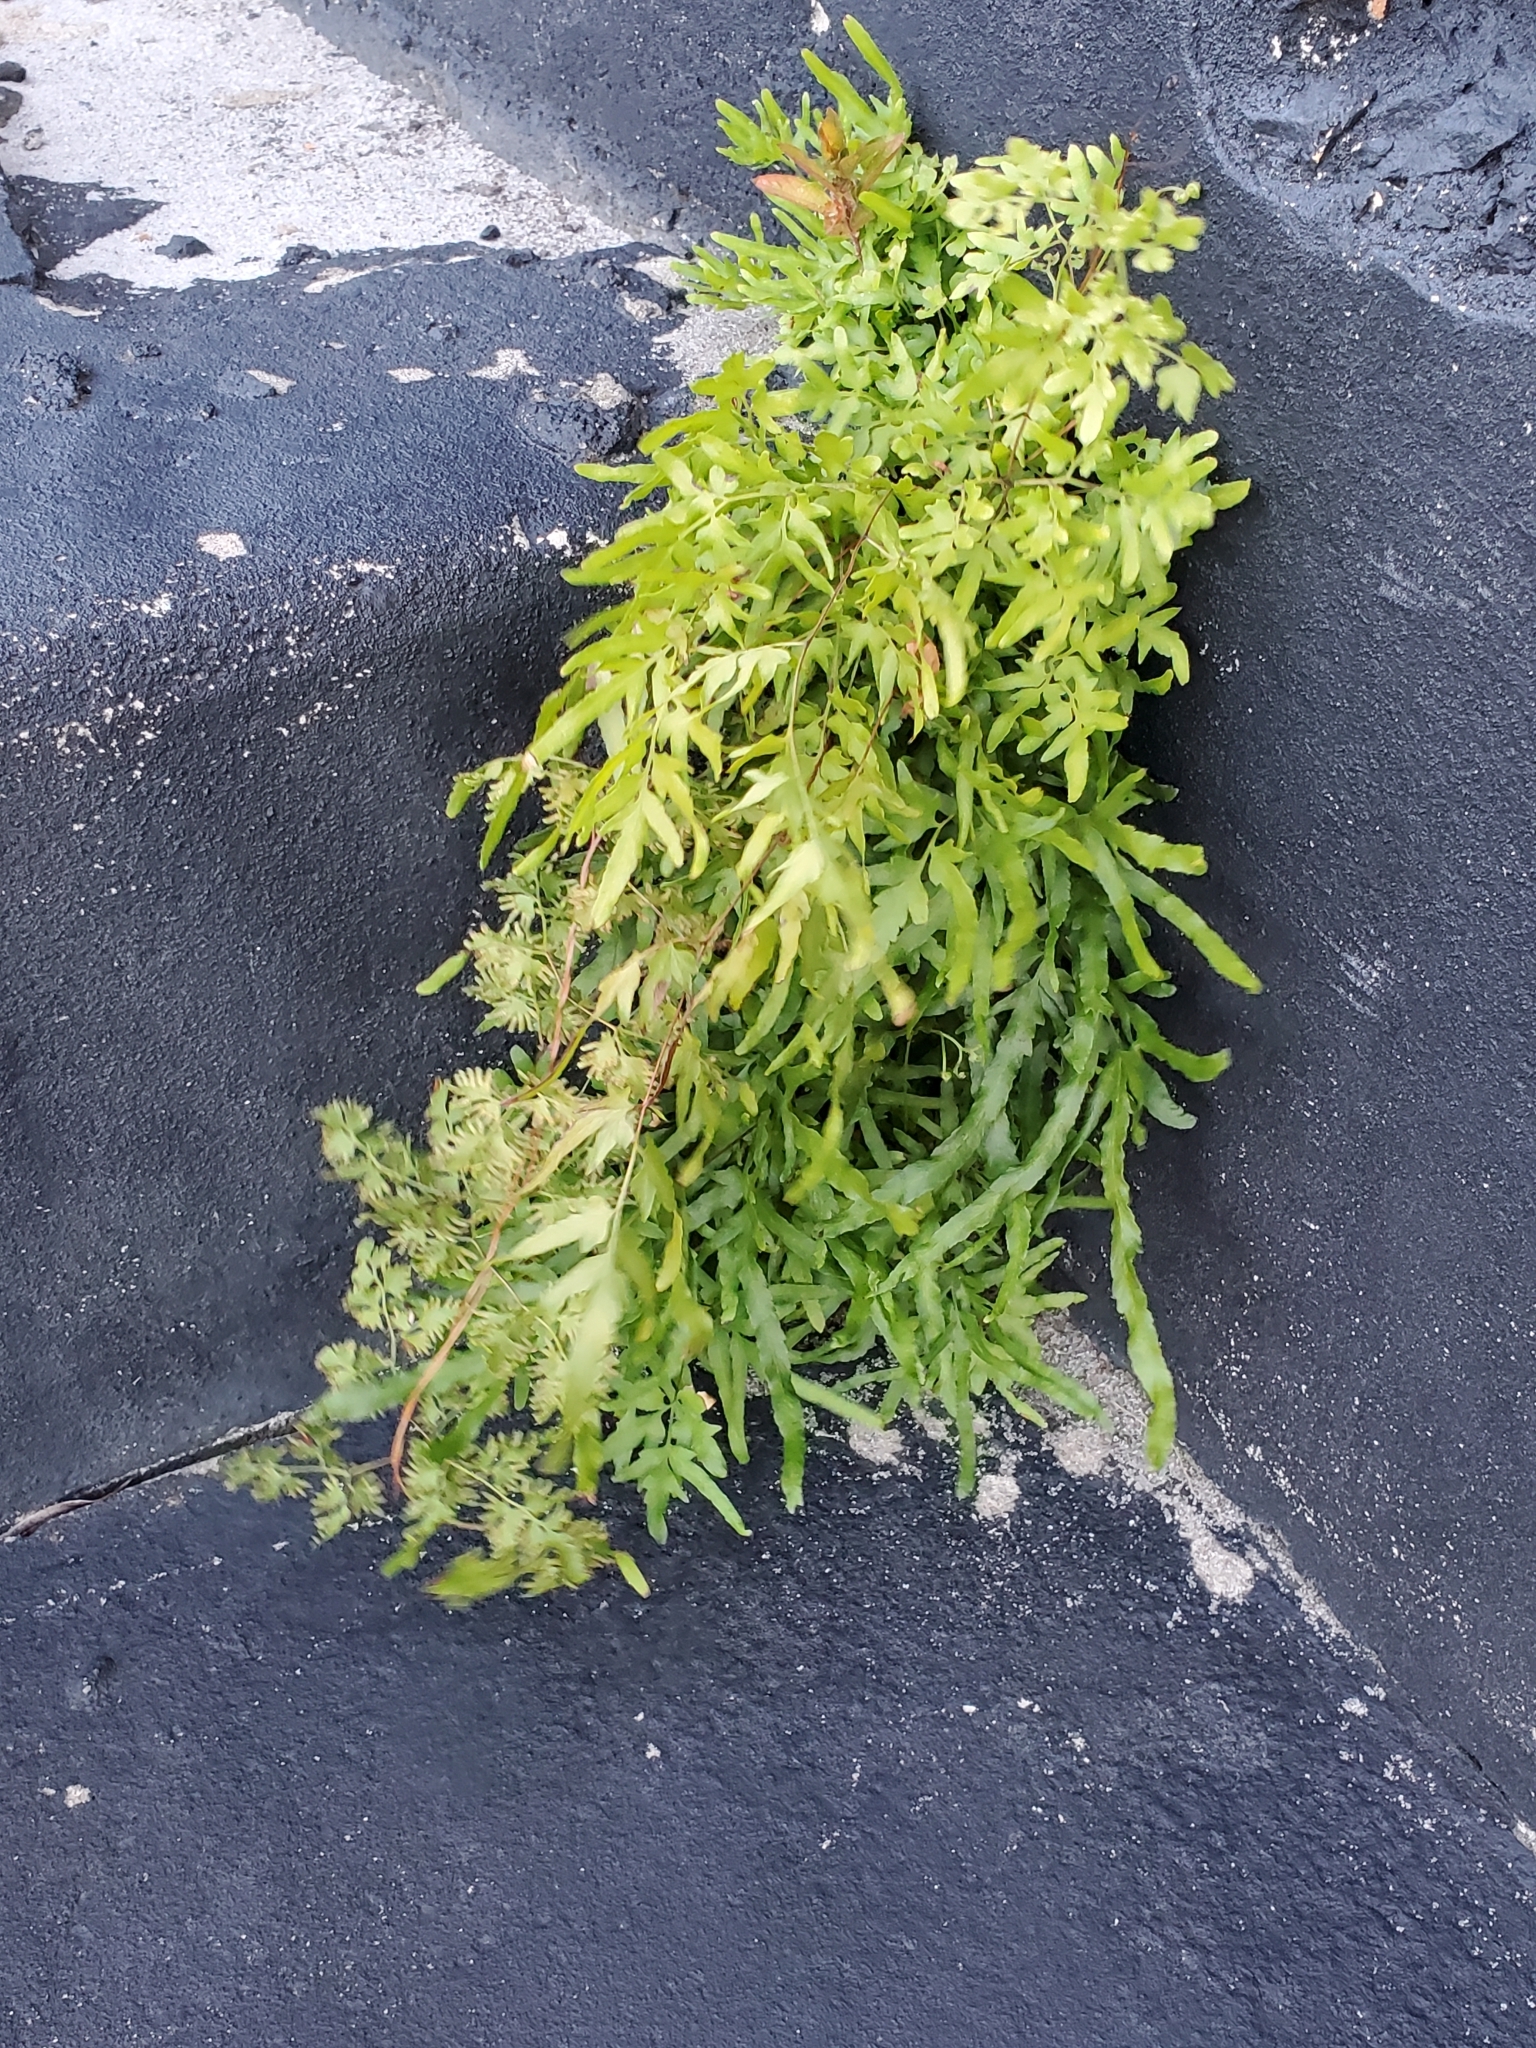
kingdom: Plantae
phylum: Tracheophyta
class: Polypodiopsida
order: Schizaeales
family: Lygodiaceae
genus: Lygodium
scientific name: Lygodium japonicum
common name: Japanese climbing fern
